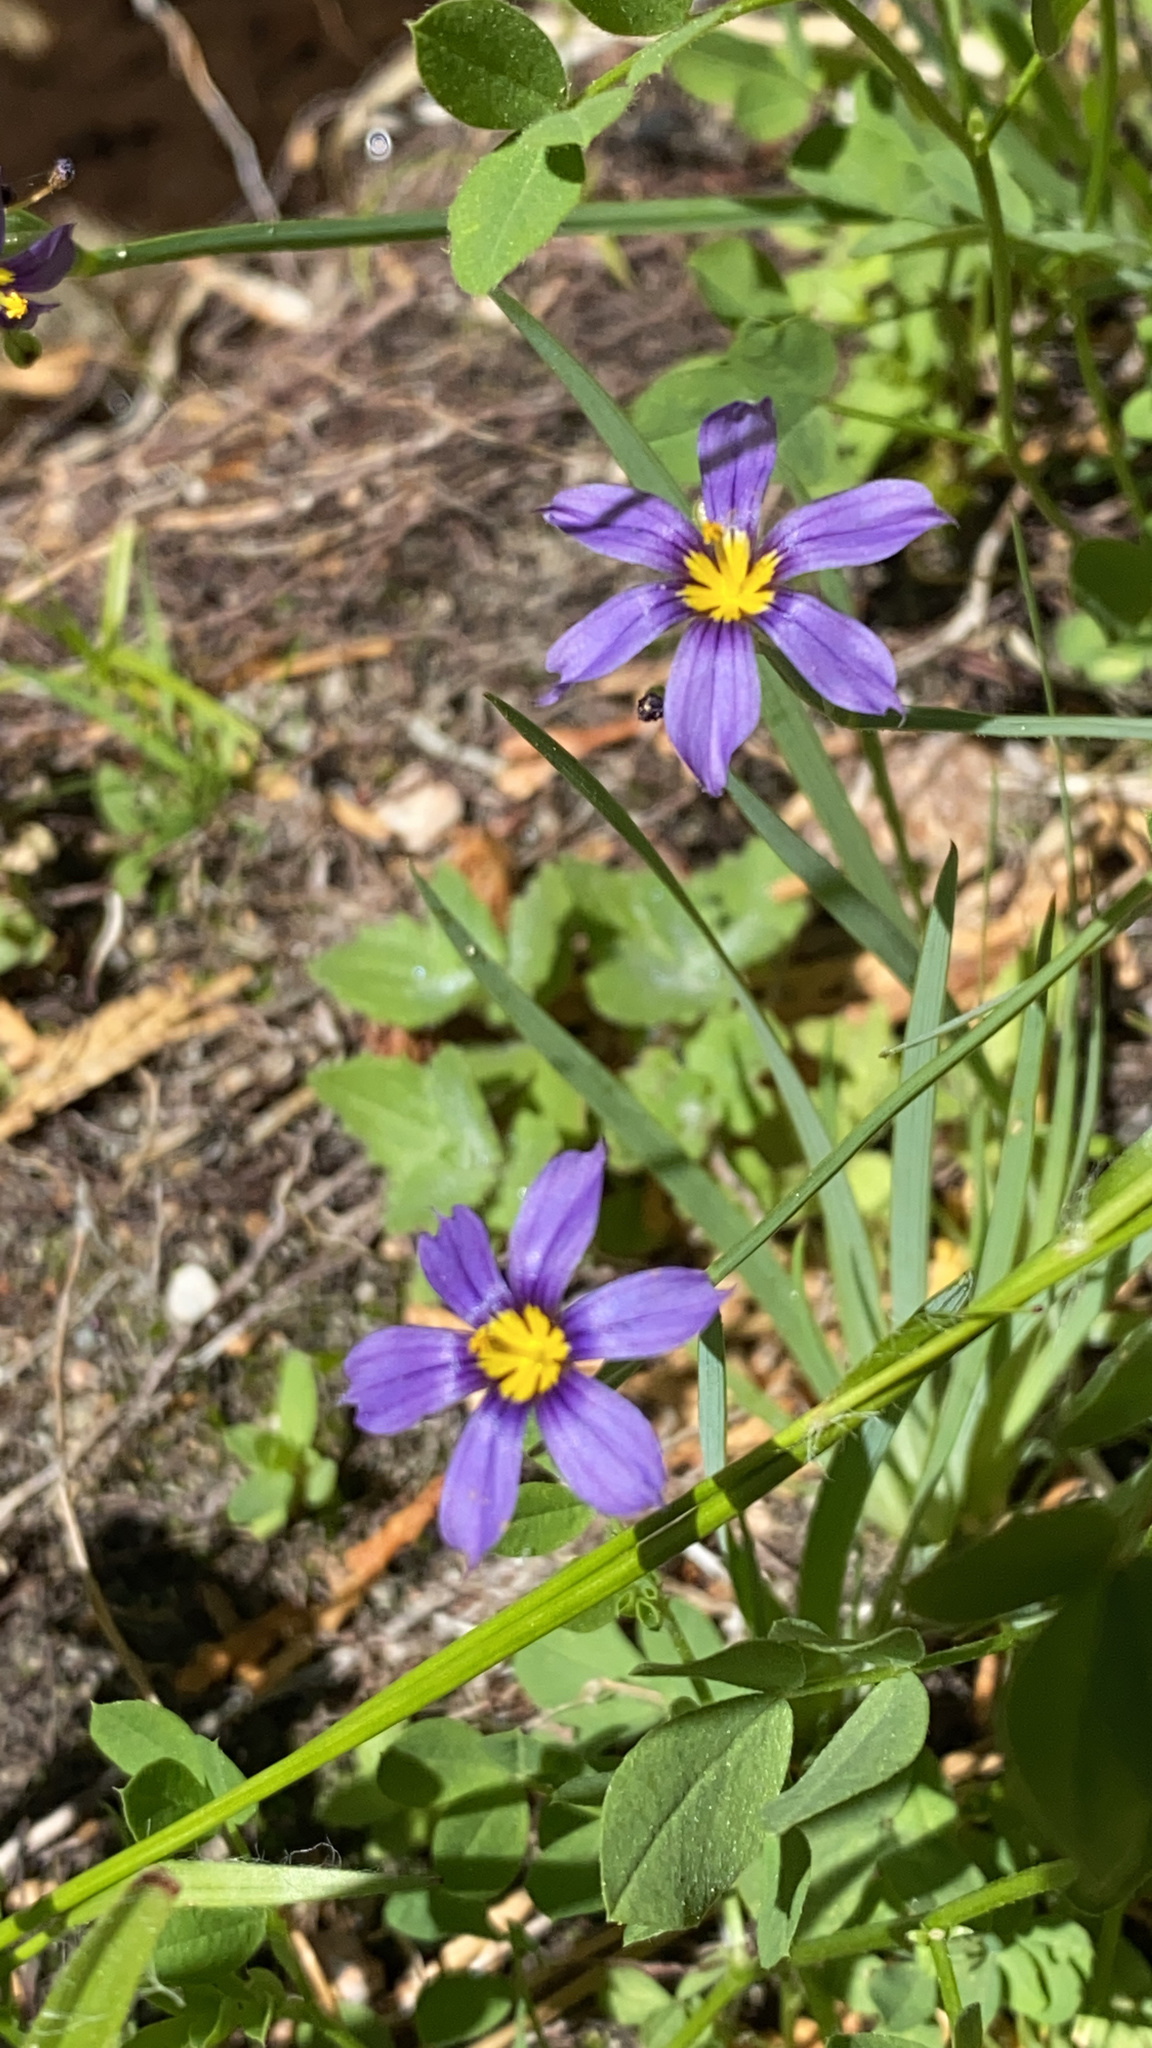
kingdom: Plantae
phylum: Tracheophyta
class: Liliopsida
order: Asparagales
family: Iridaceae
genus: Sisyrinchium
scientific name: Sisyrinchium bellum
